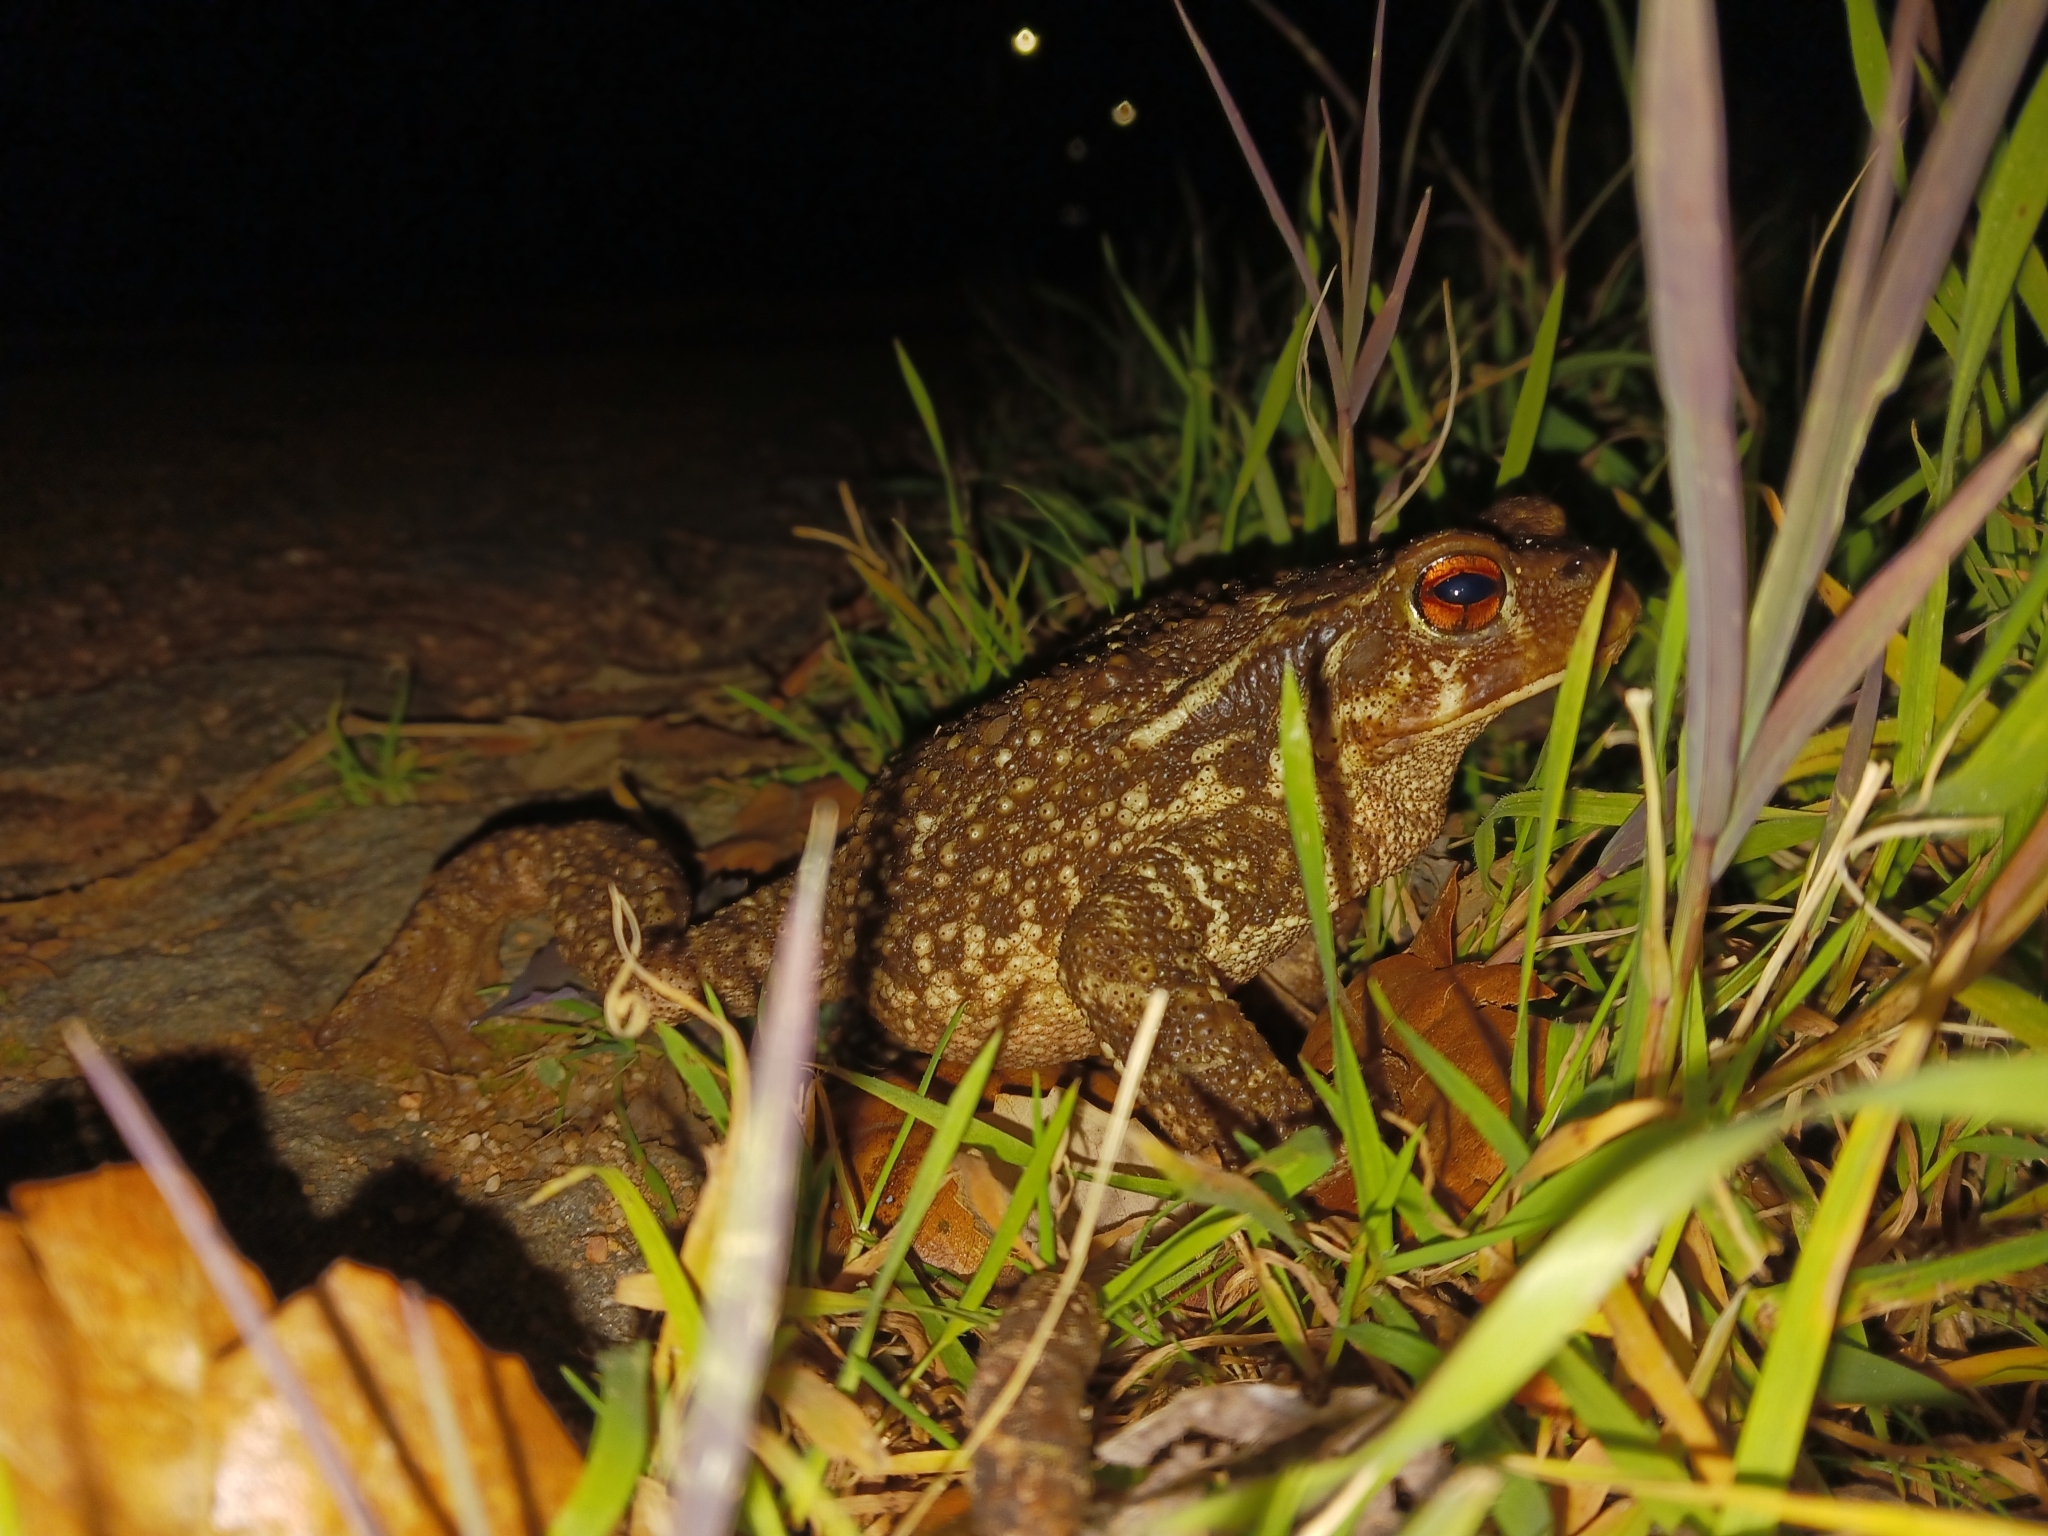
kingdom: Animalia
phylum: Chordata
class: Amphibia
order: Anura
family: Bufonidae
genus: Bufo
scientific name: Bufo spinosus
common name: Western common toad
